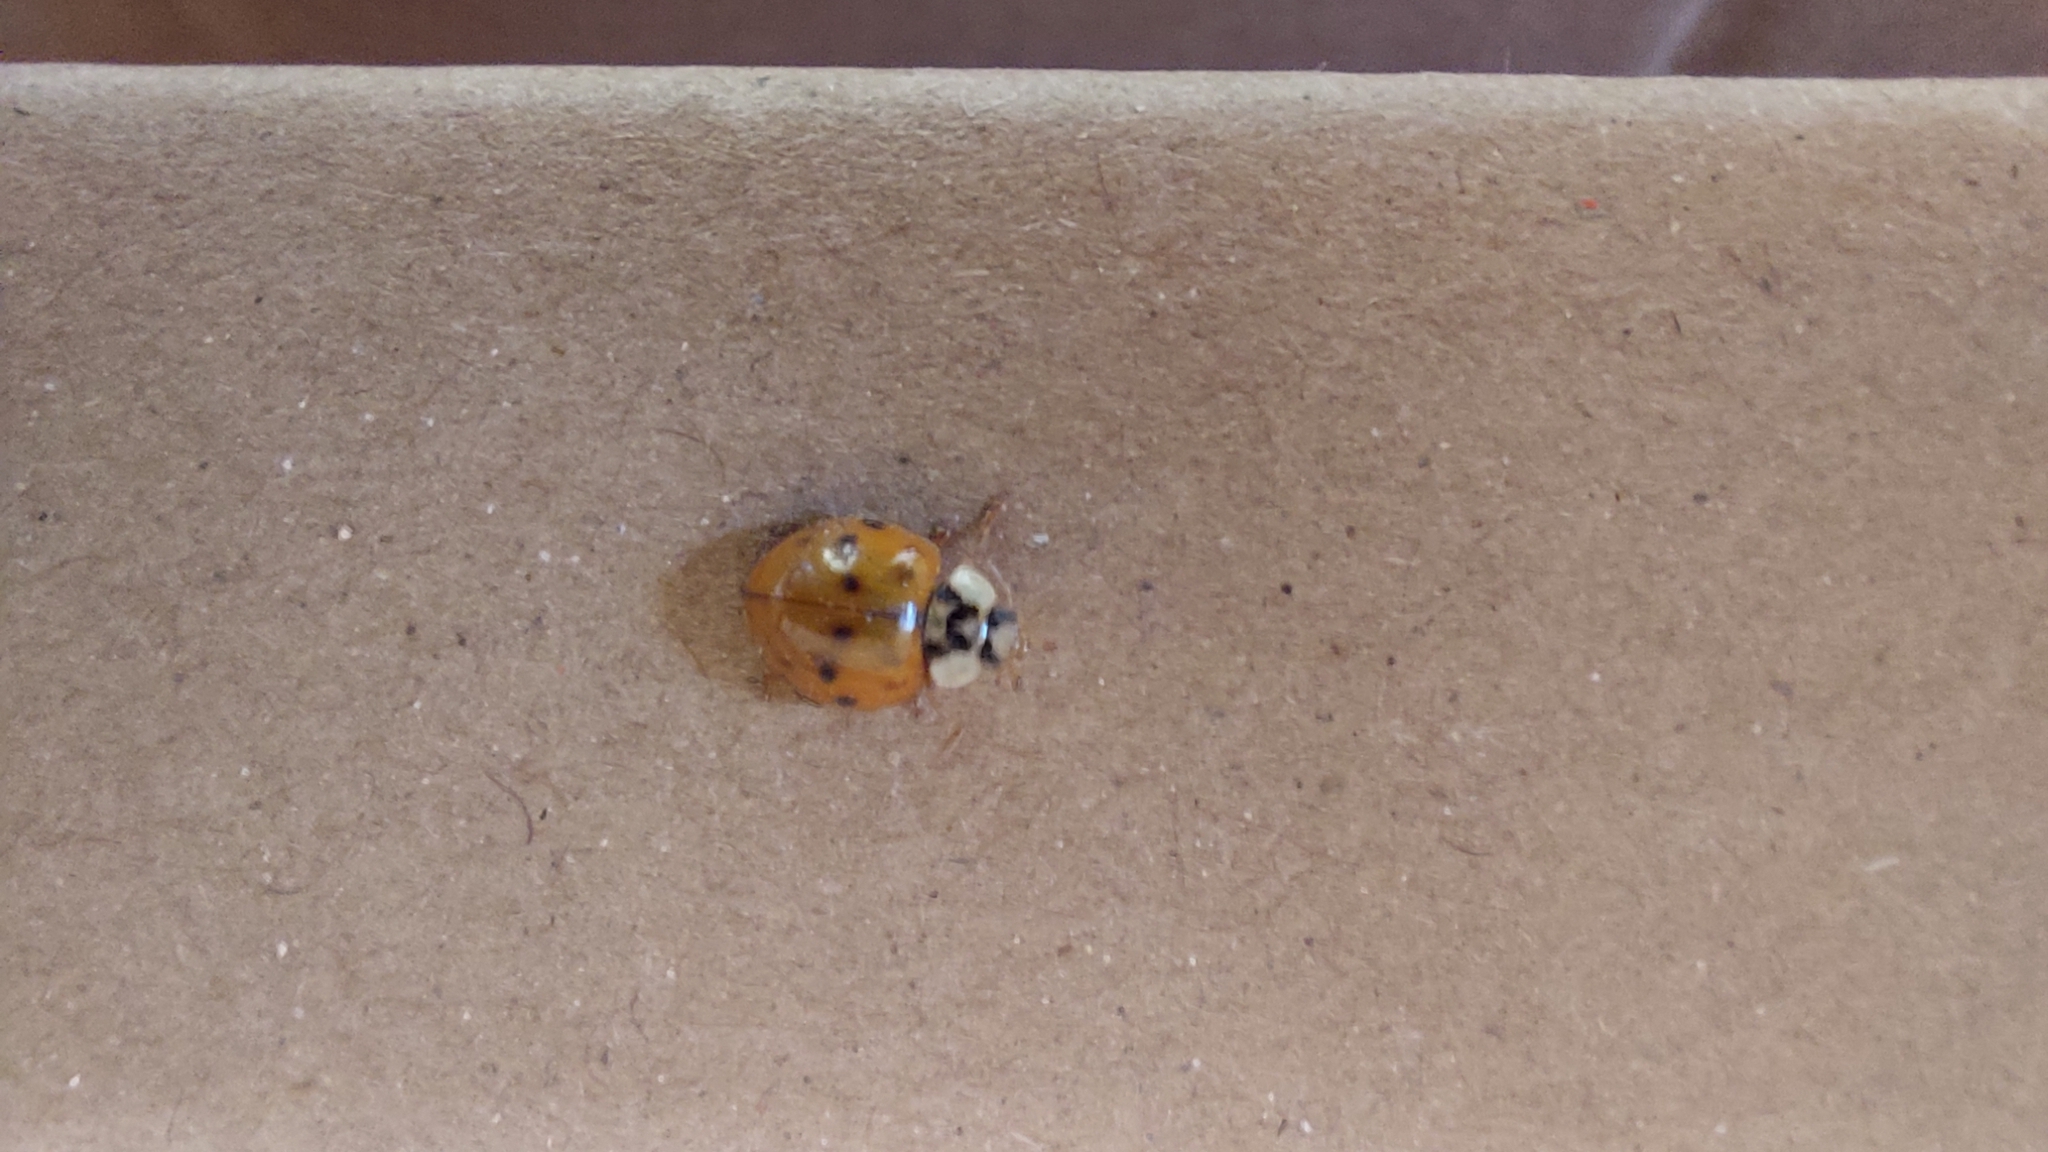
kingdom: Animalia
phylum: Arthropoda
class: Insecta
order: Coleoptera
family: Coccinellidae
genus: Harmonia
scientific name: Harmonia axyridis
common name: Harlequin ladybird
